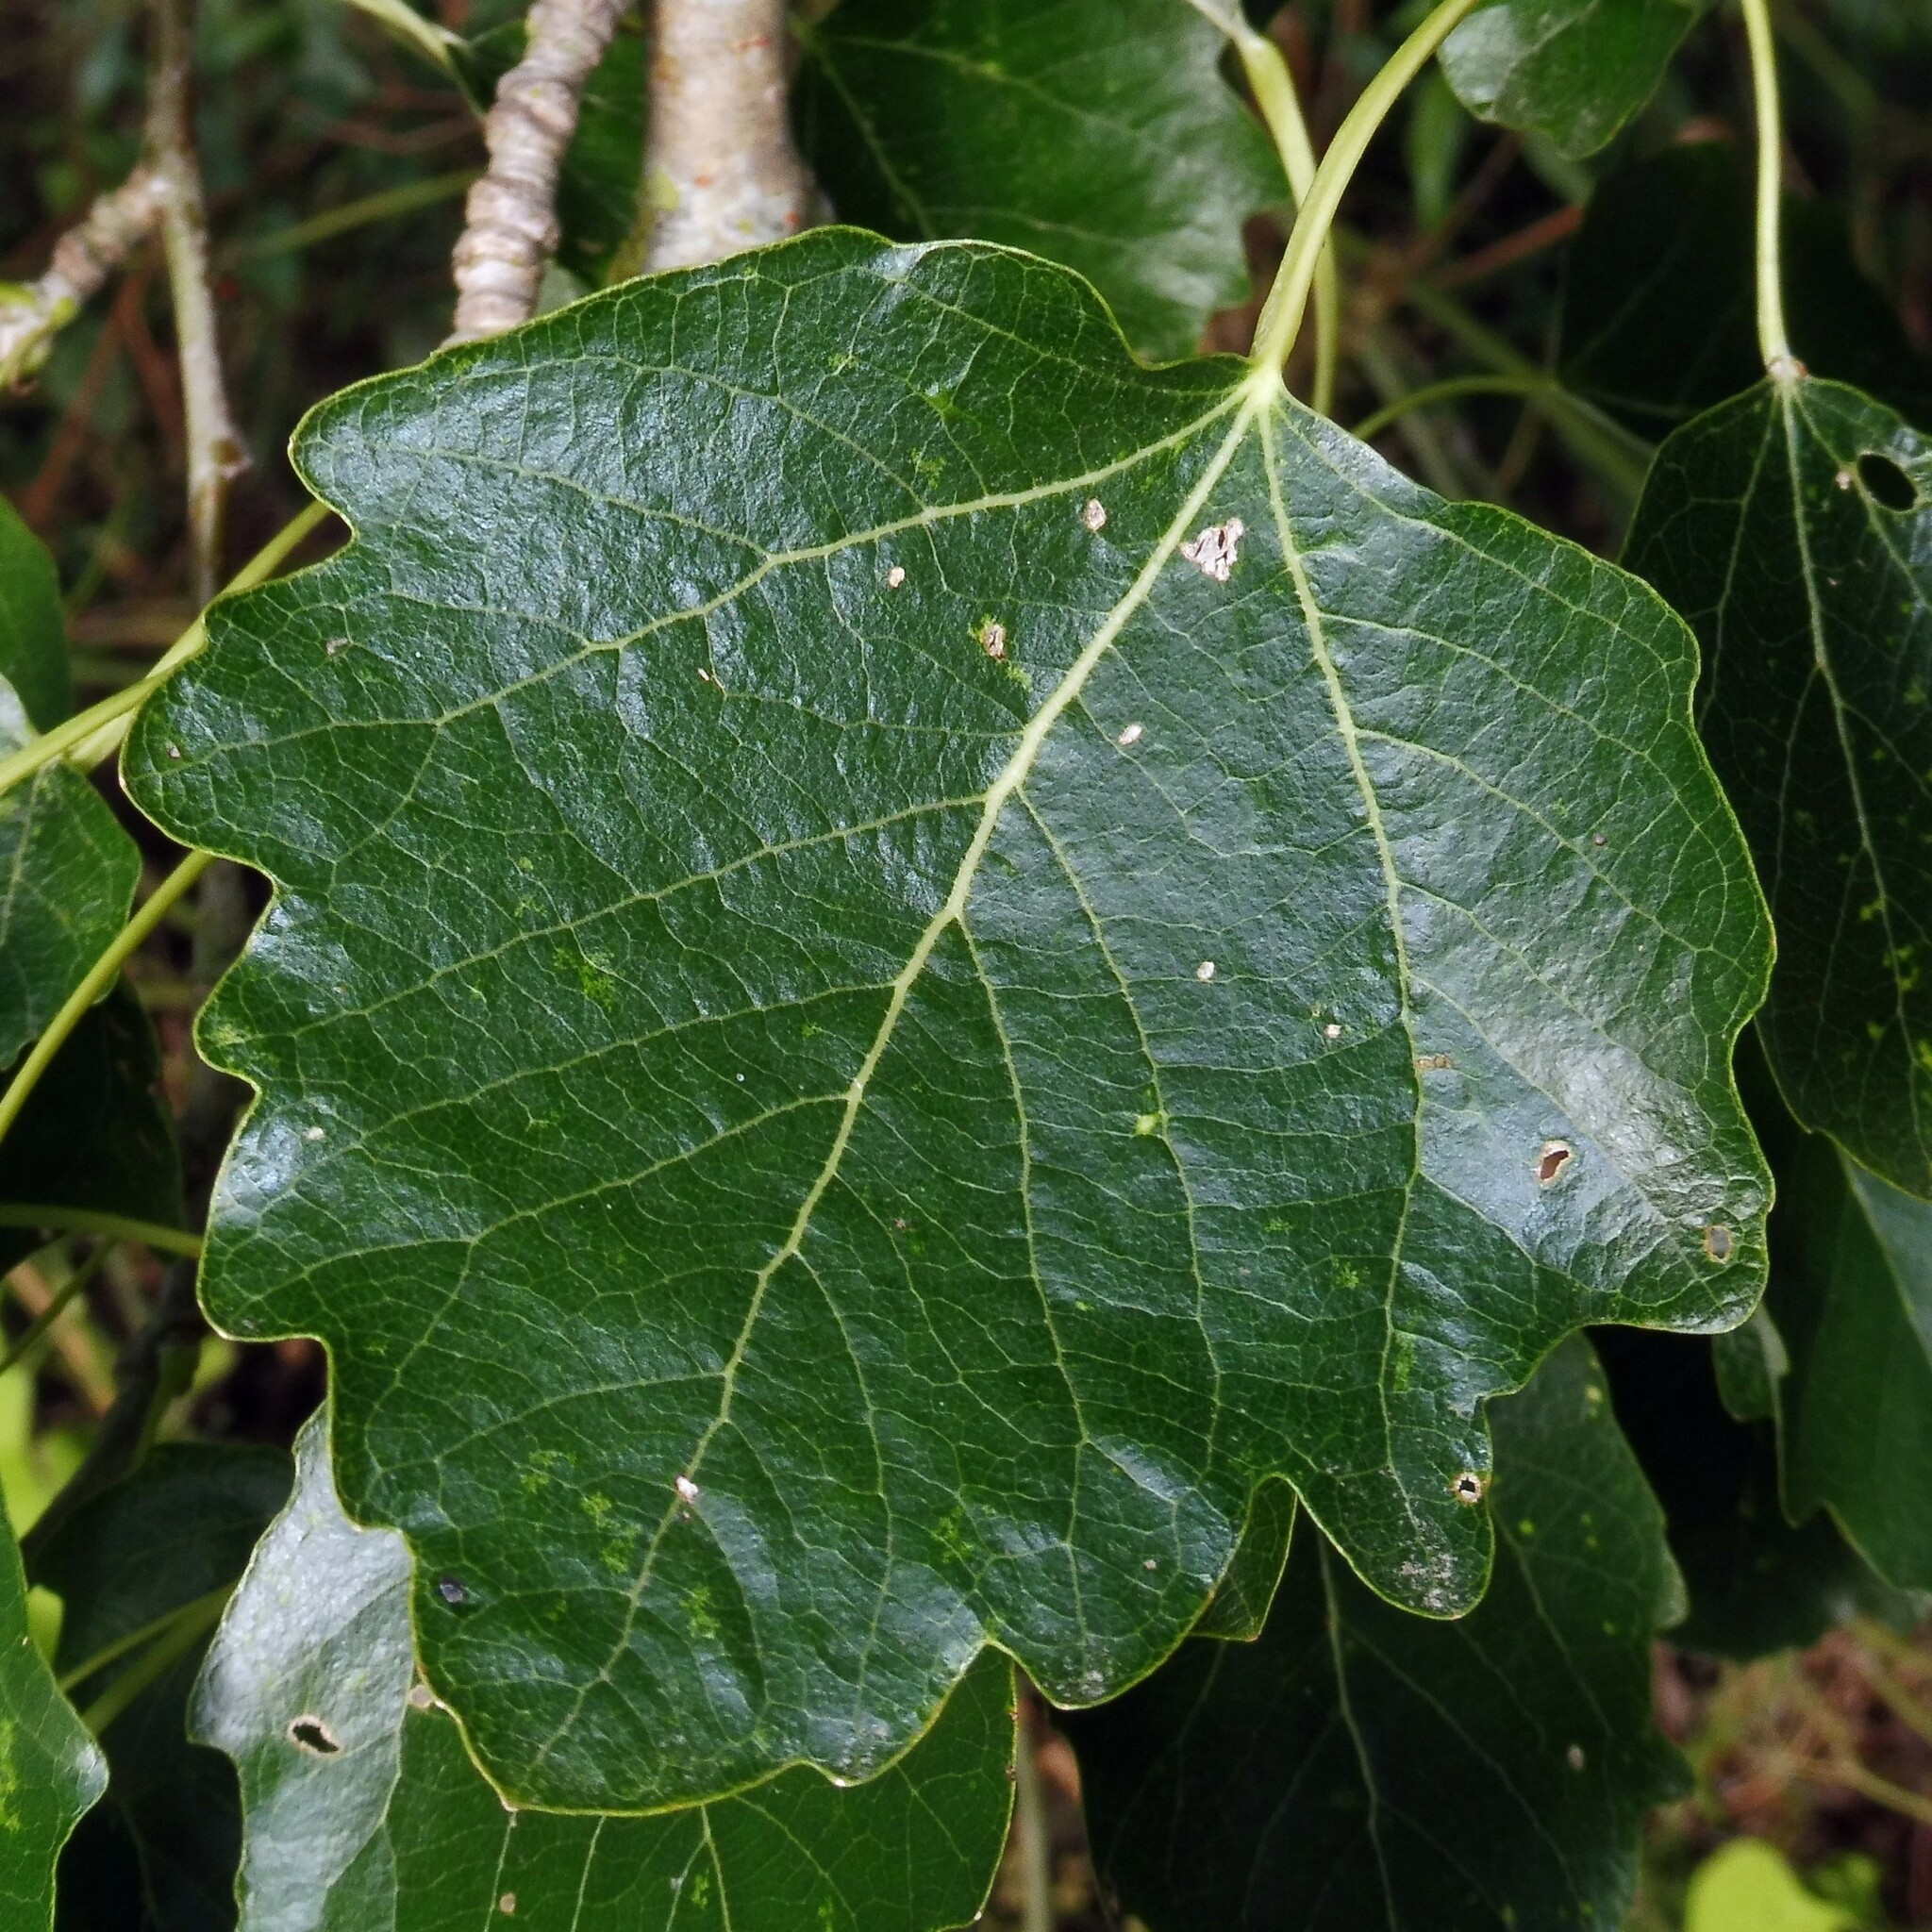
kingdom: Plantae
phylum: Tracheophyta
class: Magnoliopsida
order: Malpighiales
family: Salicaceae
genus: Populus
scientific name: Populus canescens
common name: Gray poplar
